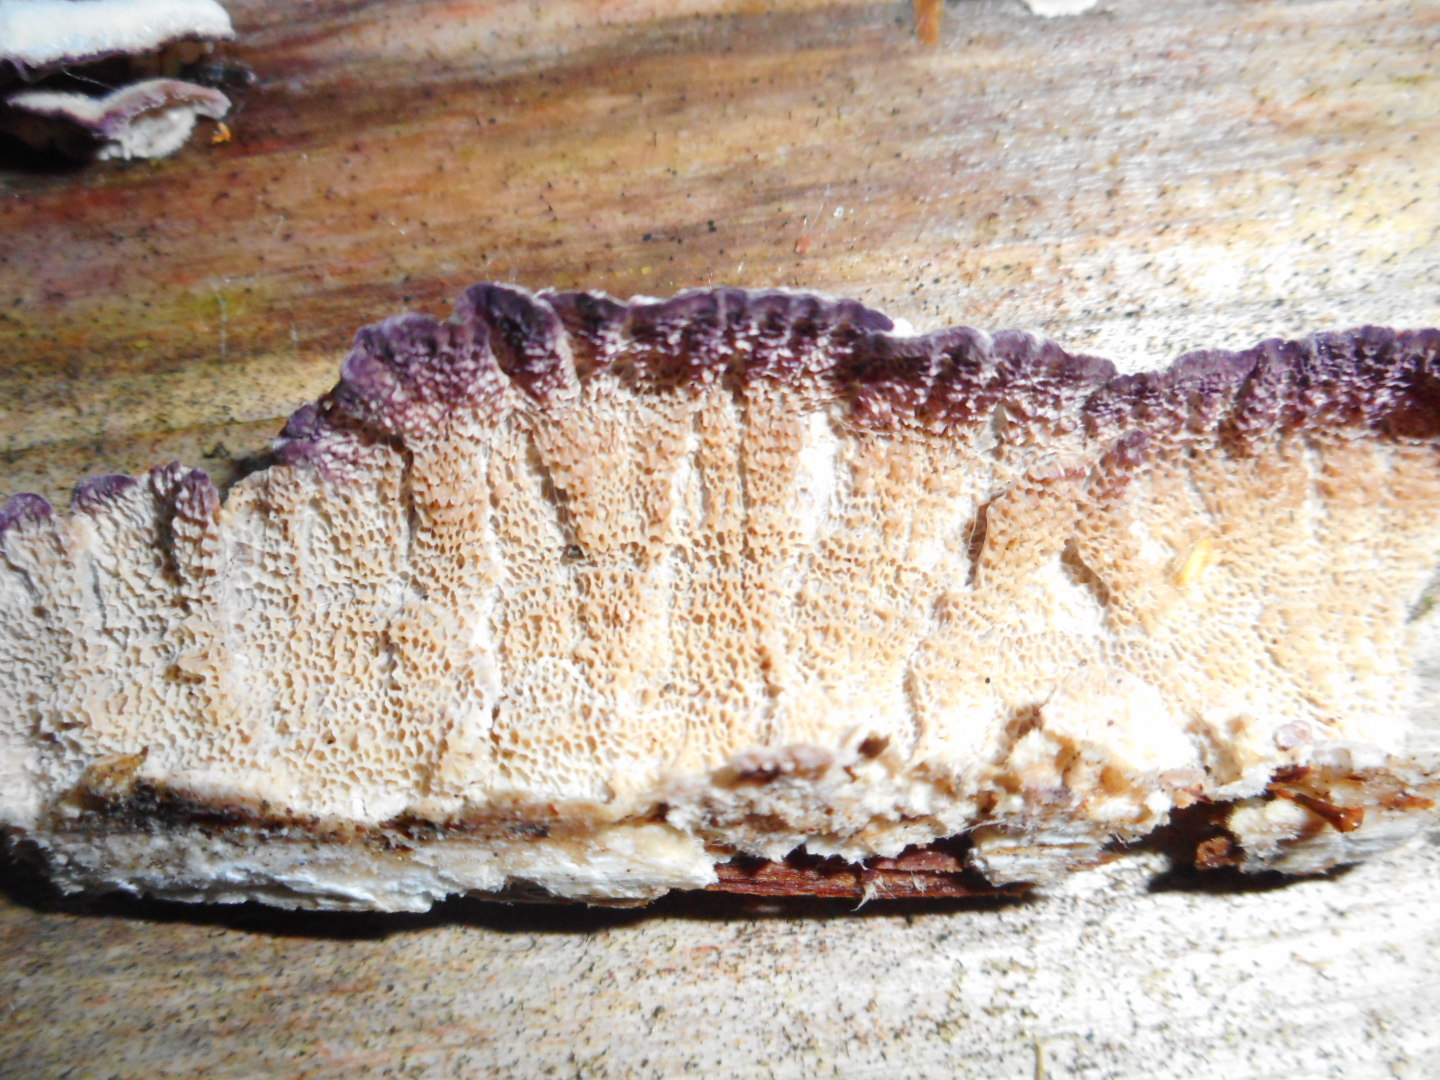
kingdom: Fungi
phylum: Basidiomycota
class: Agaricomycetes
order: Hymenochaetales
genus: Trichaptum
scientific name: Trichaptum abietinum
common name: Purplepore bracket
